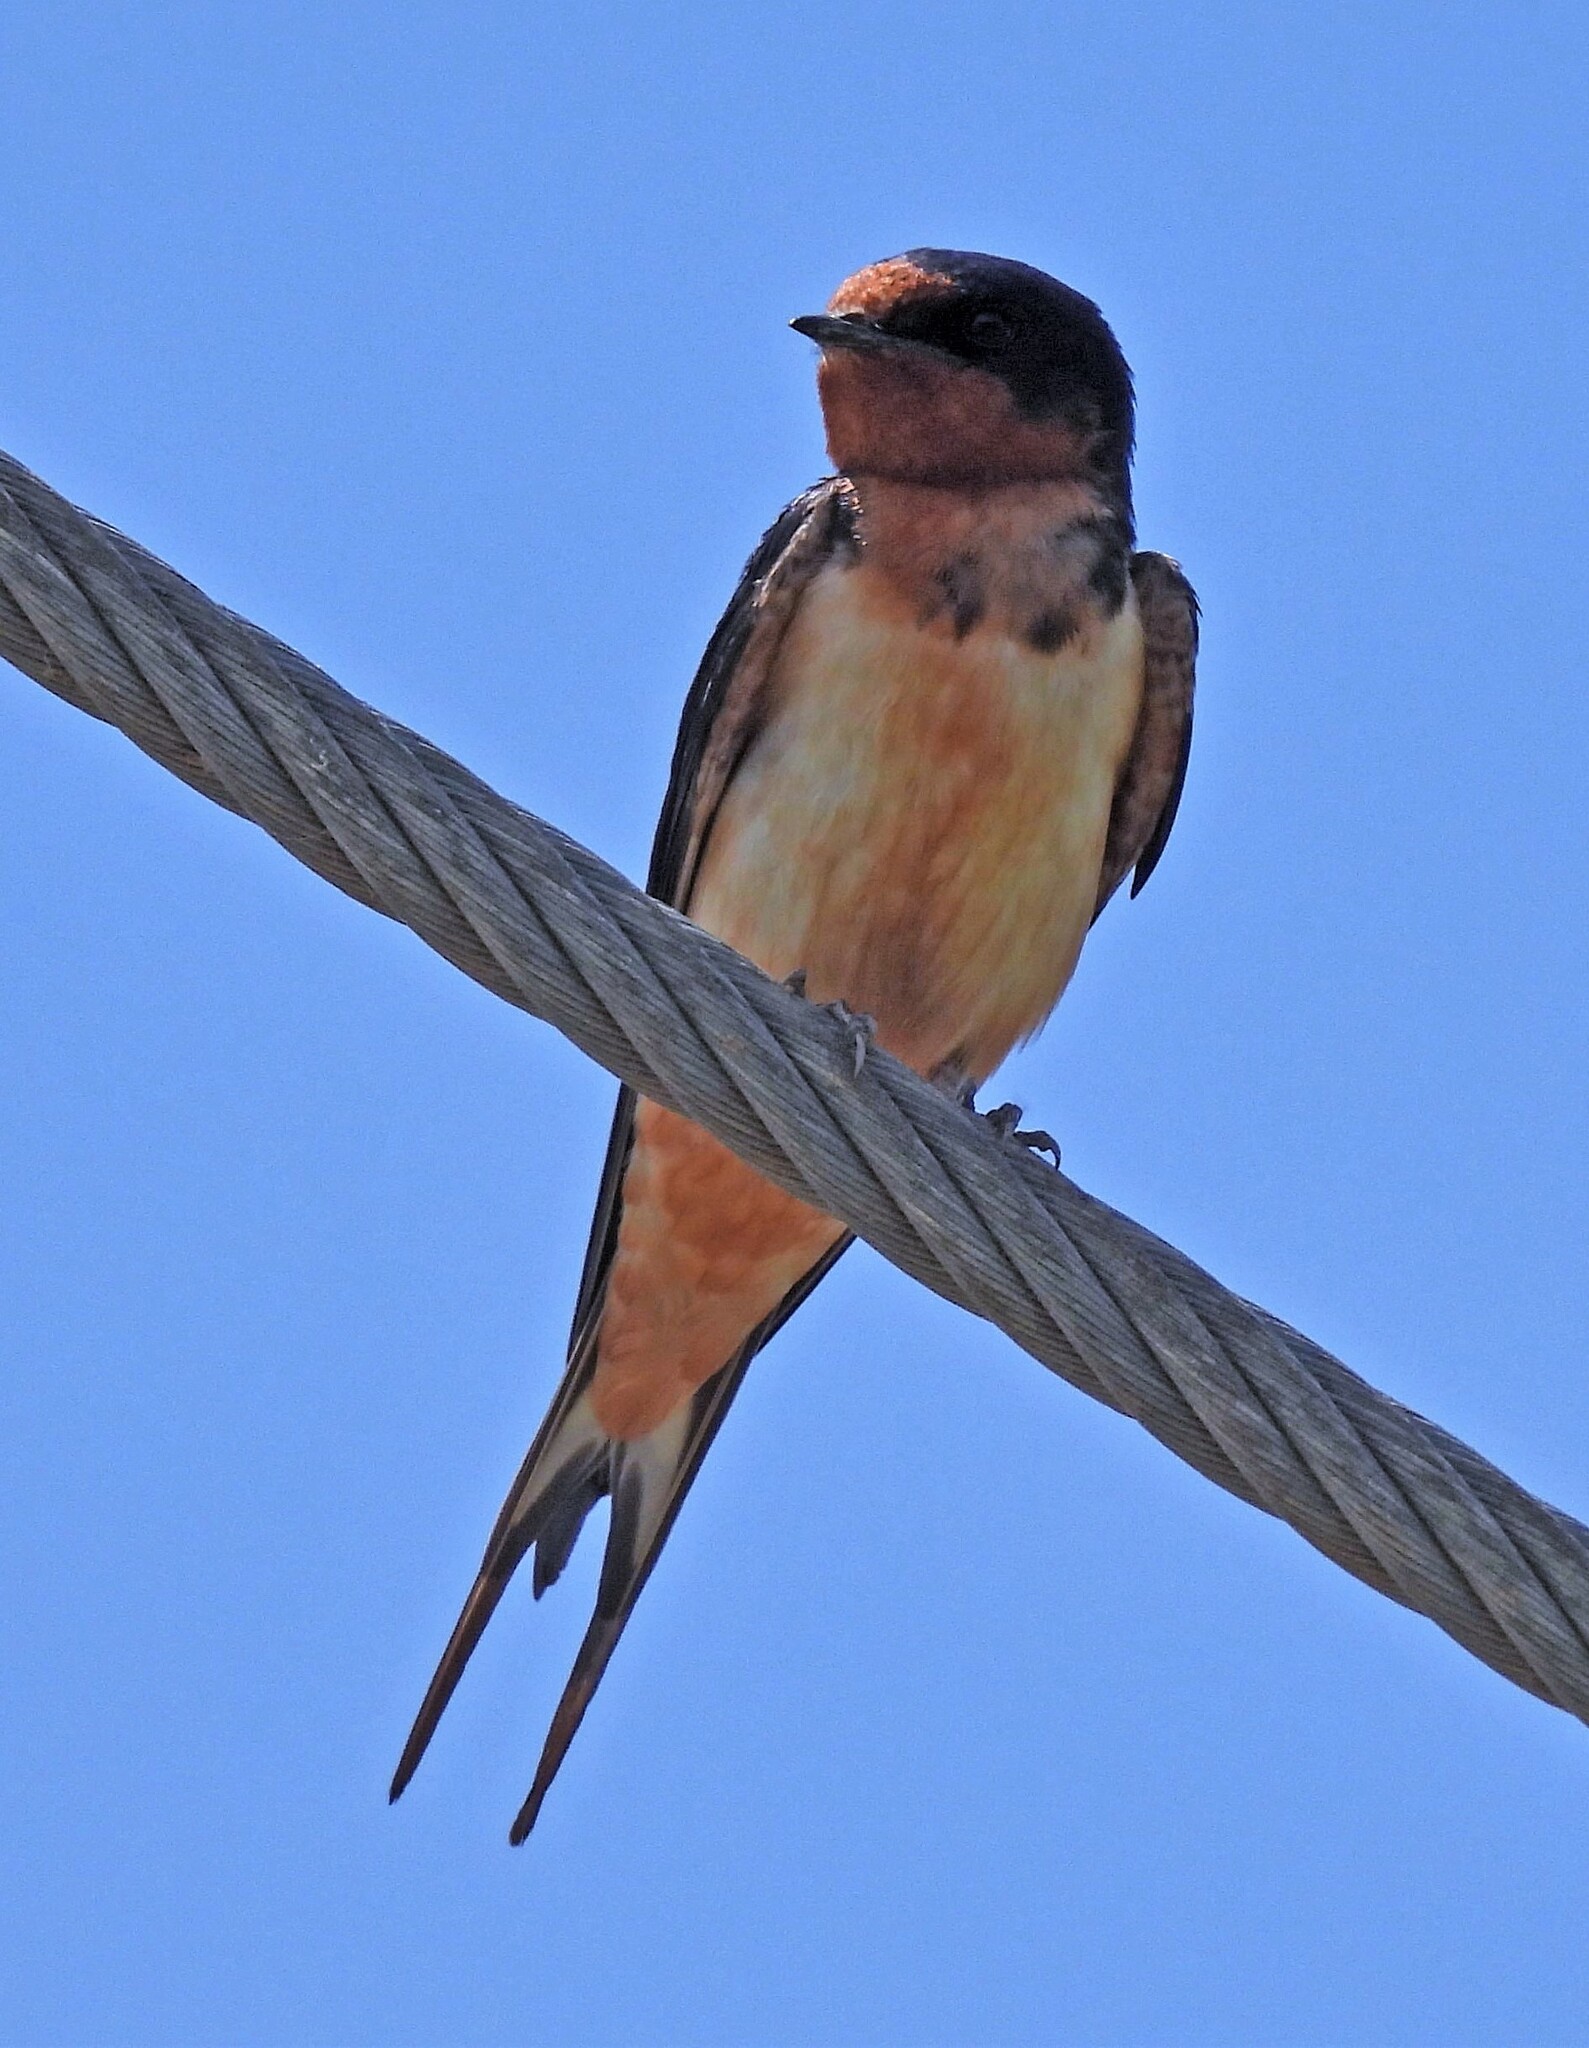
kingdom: Animalia
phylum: Chordata
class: Aves
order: Passeriformes
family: Hirundinidae
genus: Hirundo
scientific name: Hirundo rustica
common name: Barn swallow
